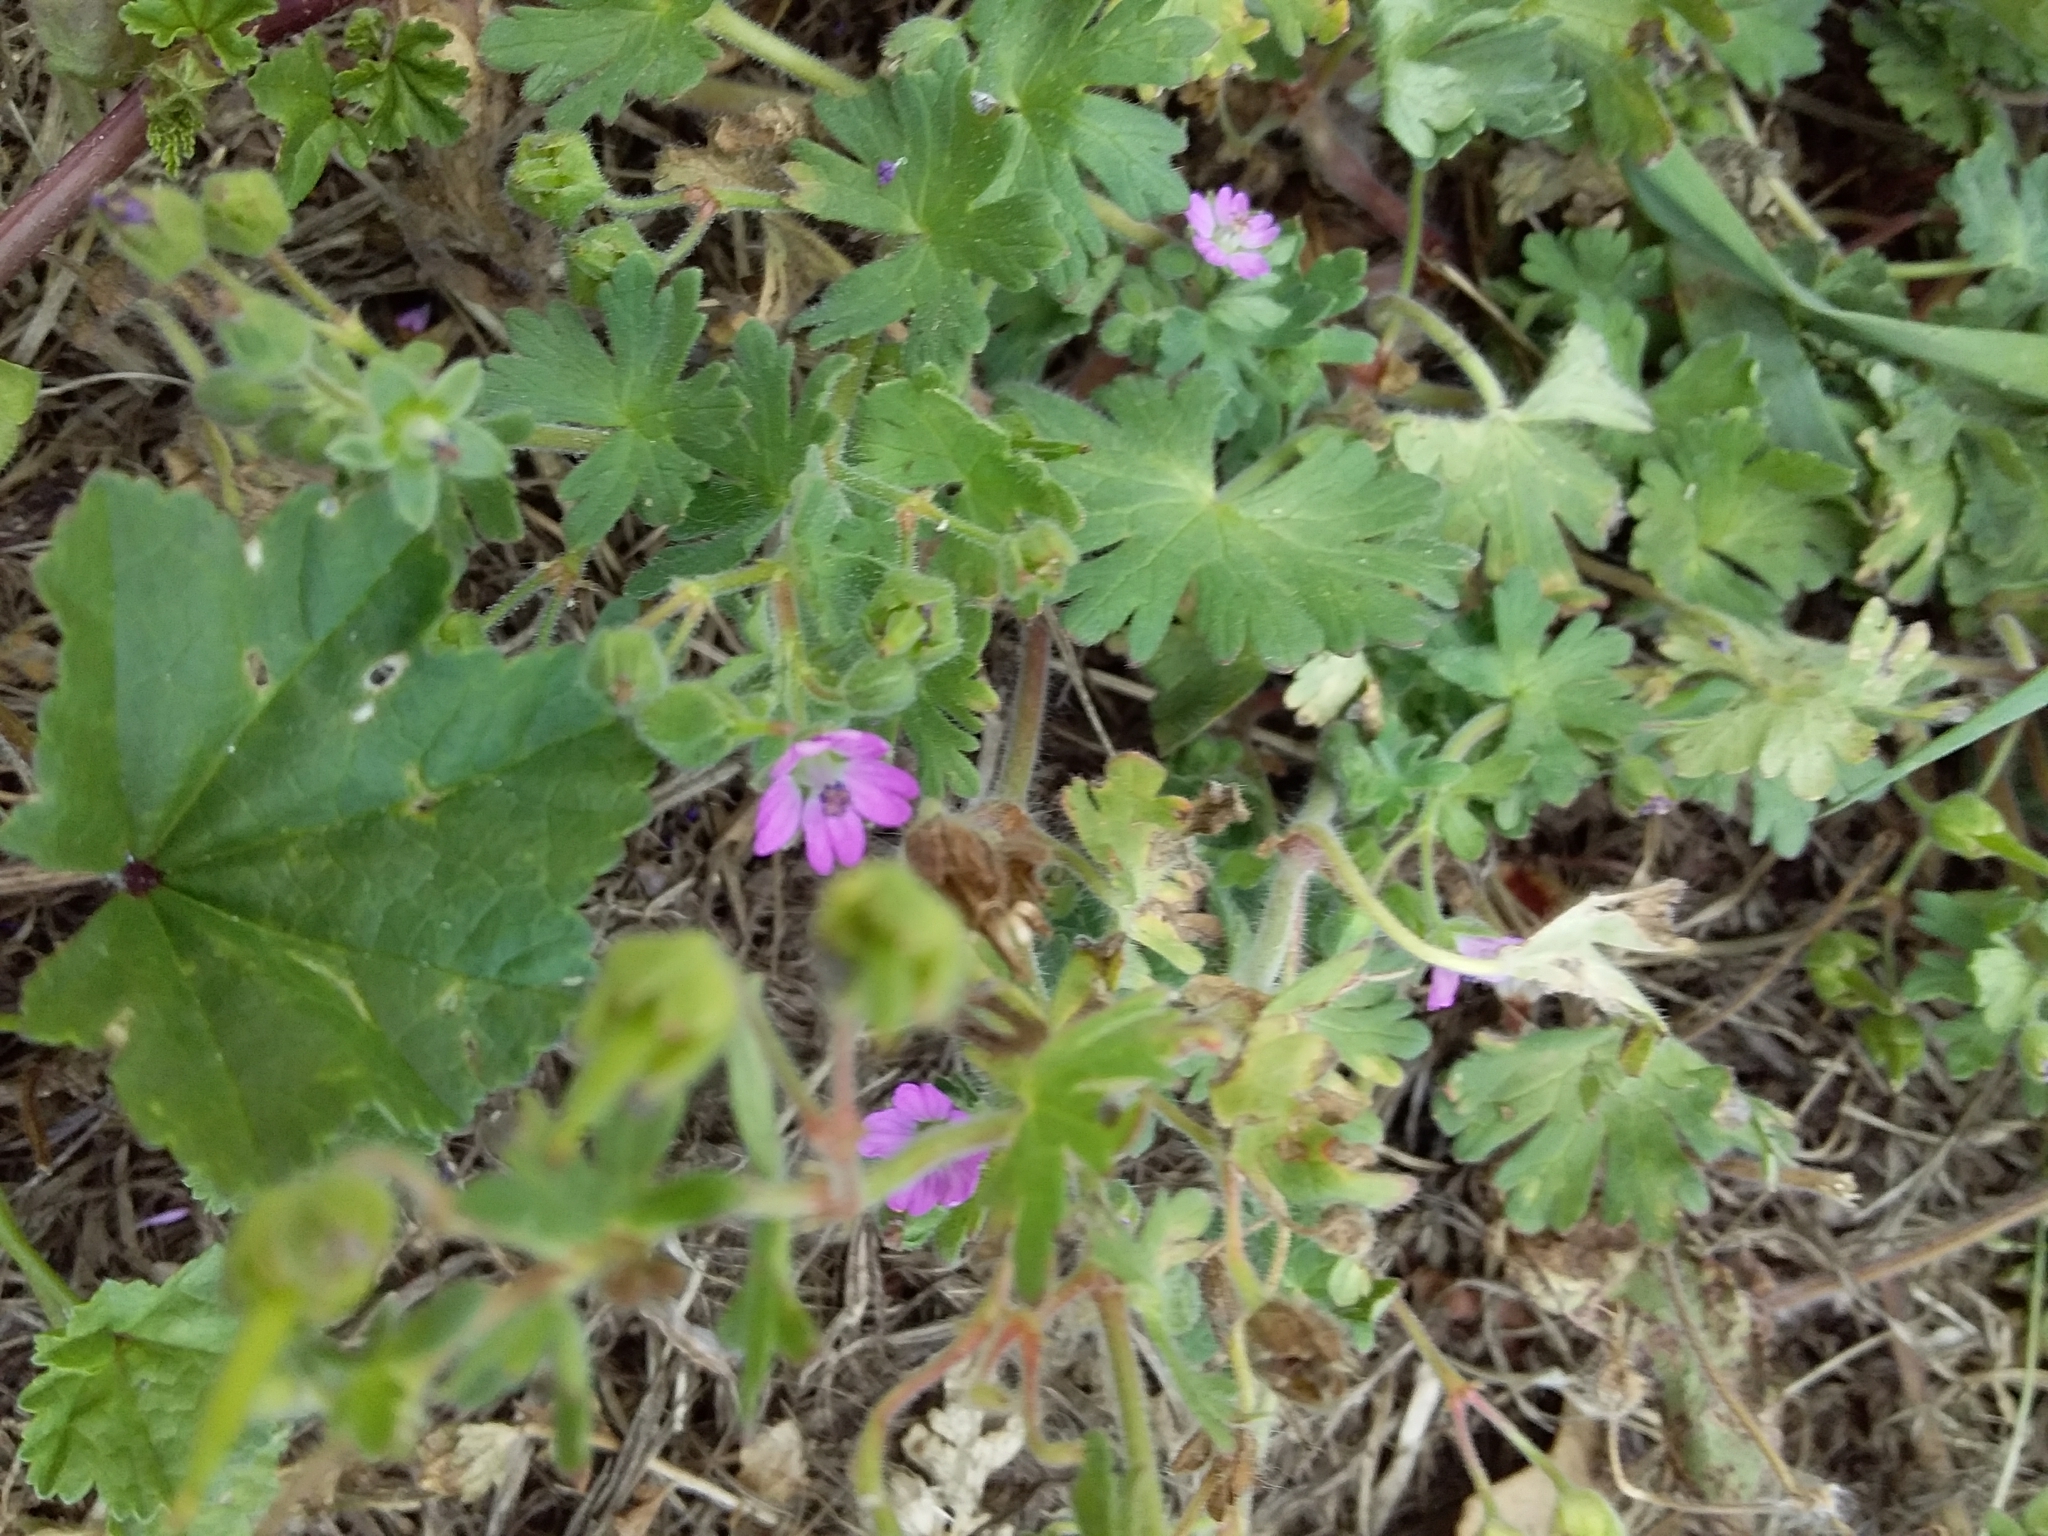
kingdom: Plantae
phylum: Tracheophyta
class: Magnoliopsida
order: Geraniales
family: Geraniaceae
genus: Geranium
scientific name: Geranium molle
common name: Dove's-foot crane's-bill
